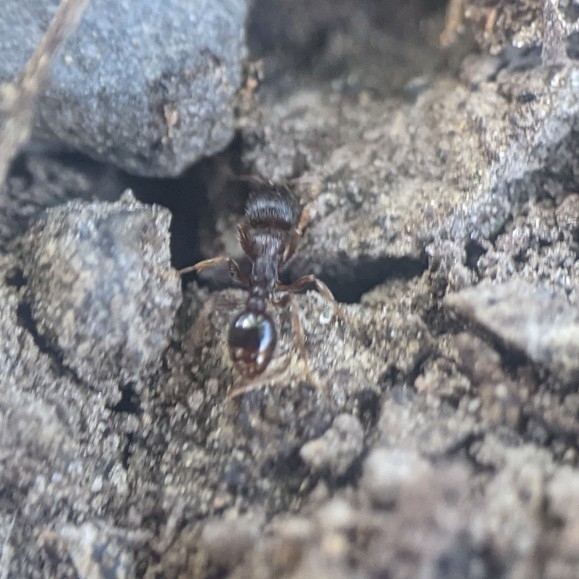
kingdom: Animalia
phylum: Arthropoda
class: Insecta
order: Hymenoptera
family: Formicidae
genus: Tetramorium
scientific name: Tetramorium immigrans
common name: Pavement ant
